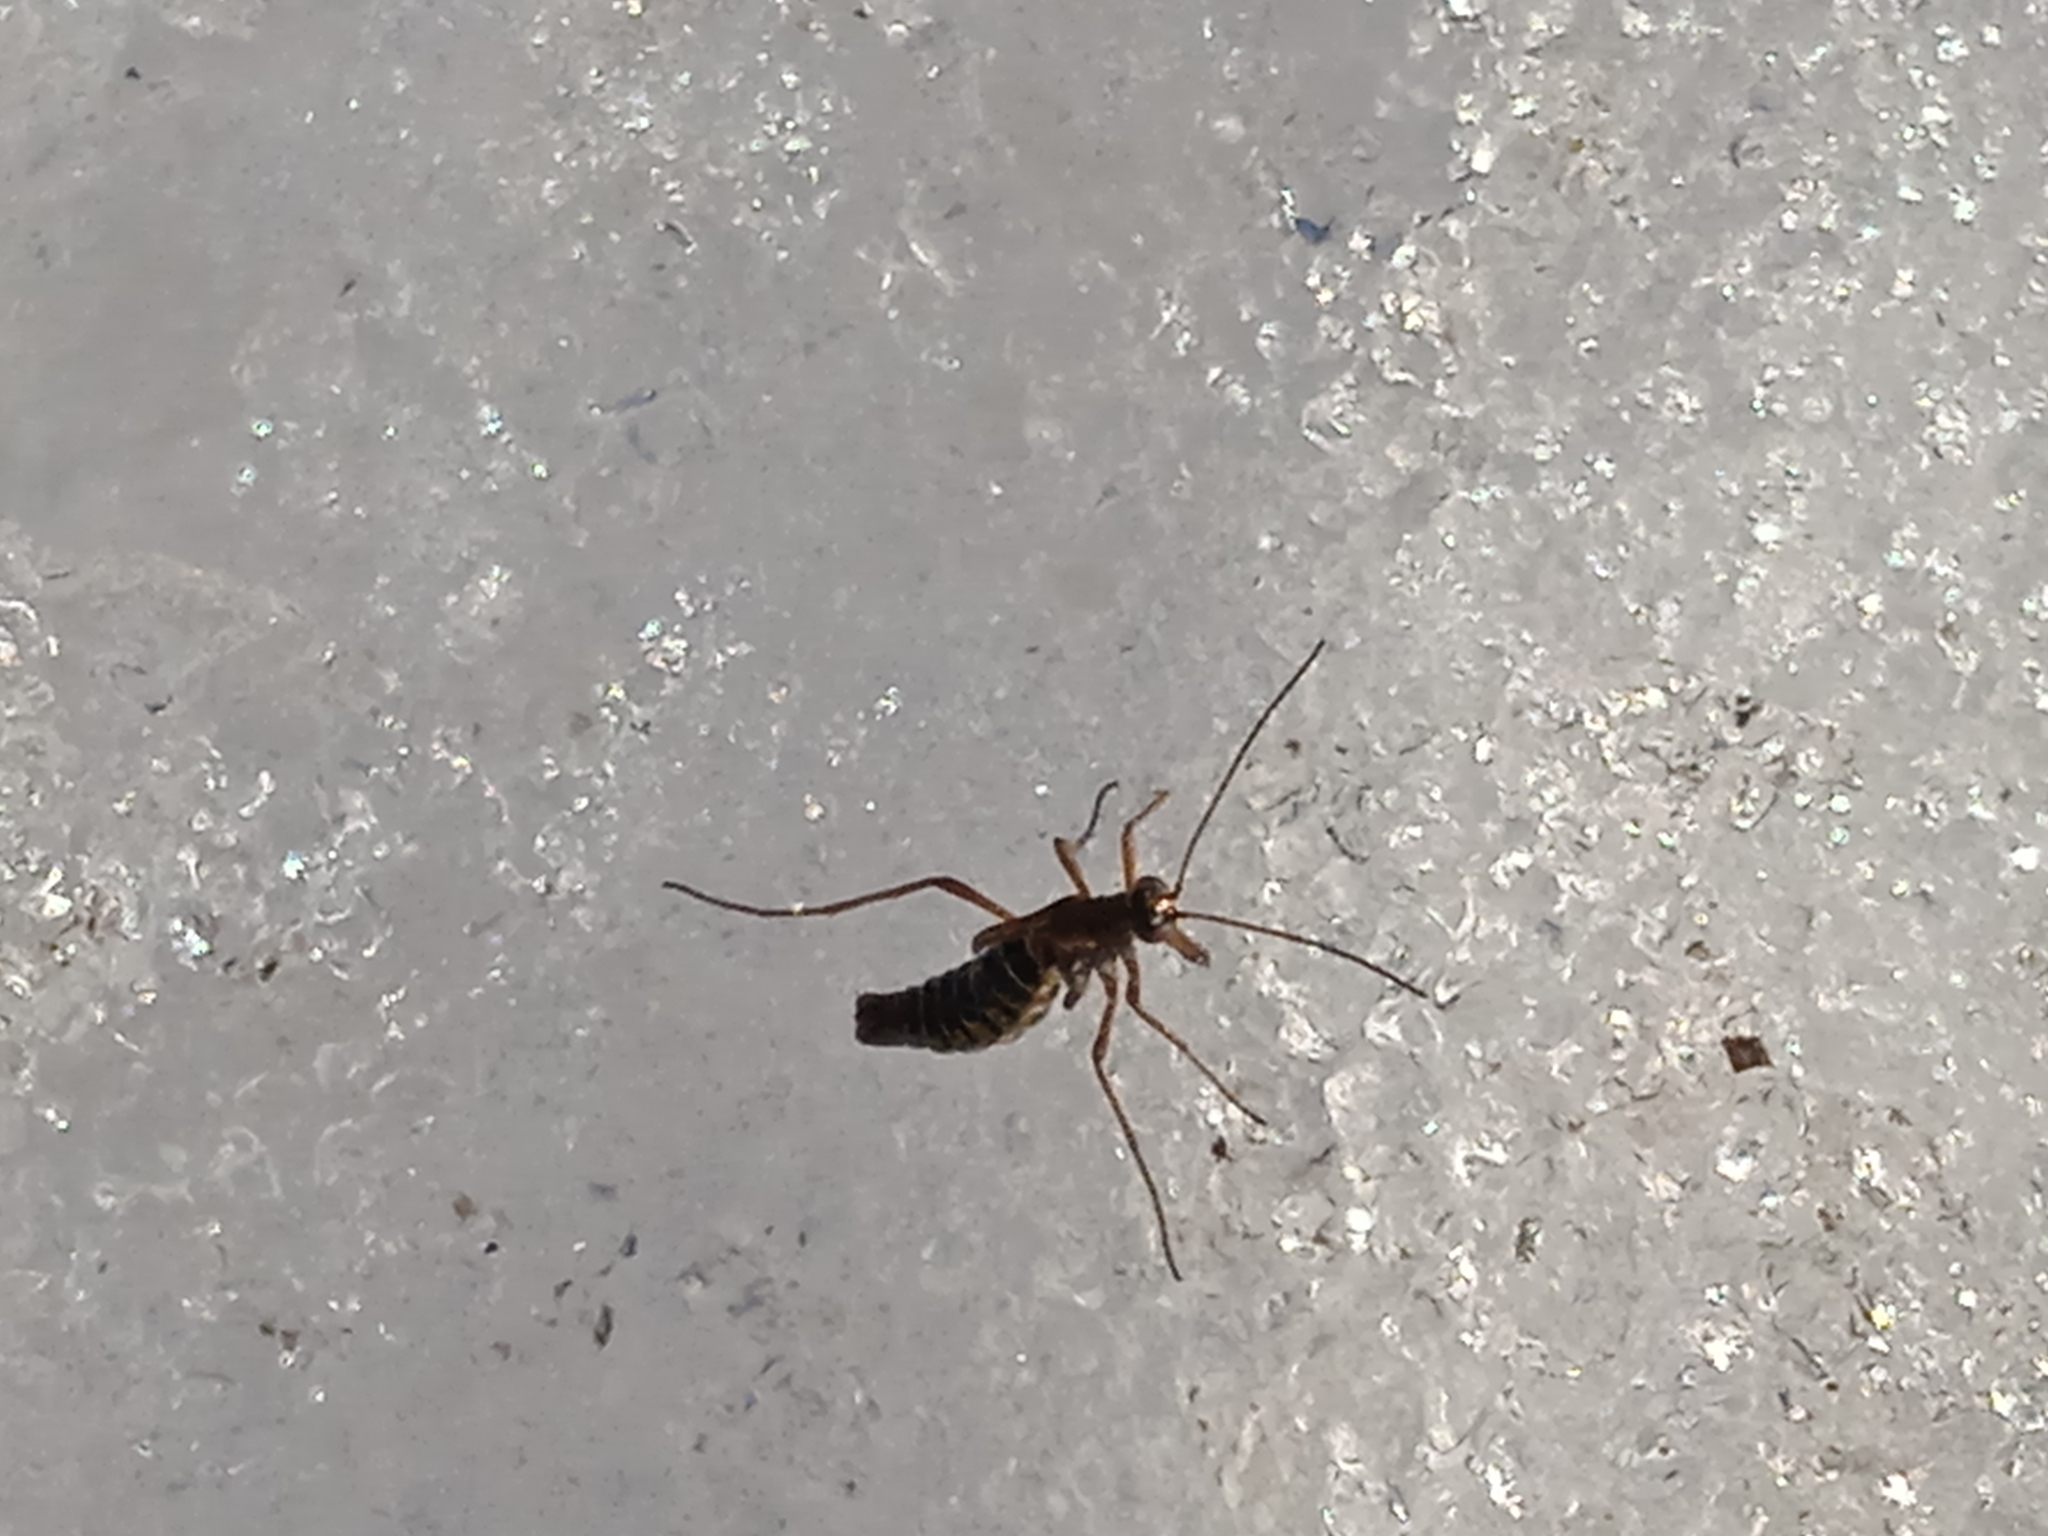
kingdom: Animalia
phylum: Arthropoda
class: Insecta
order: Mecoptera
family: Boreidae
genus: Boreus
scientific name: Boreus westwoodi
